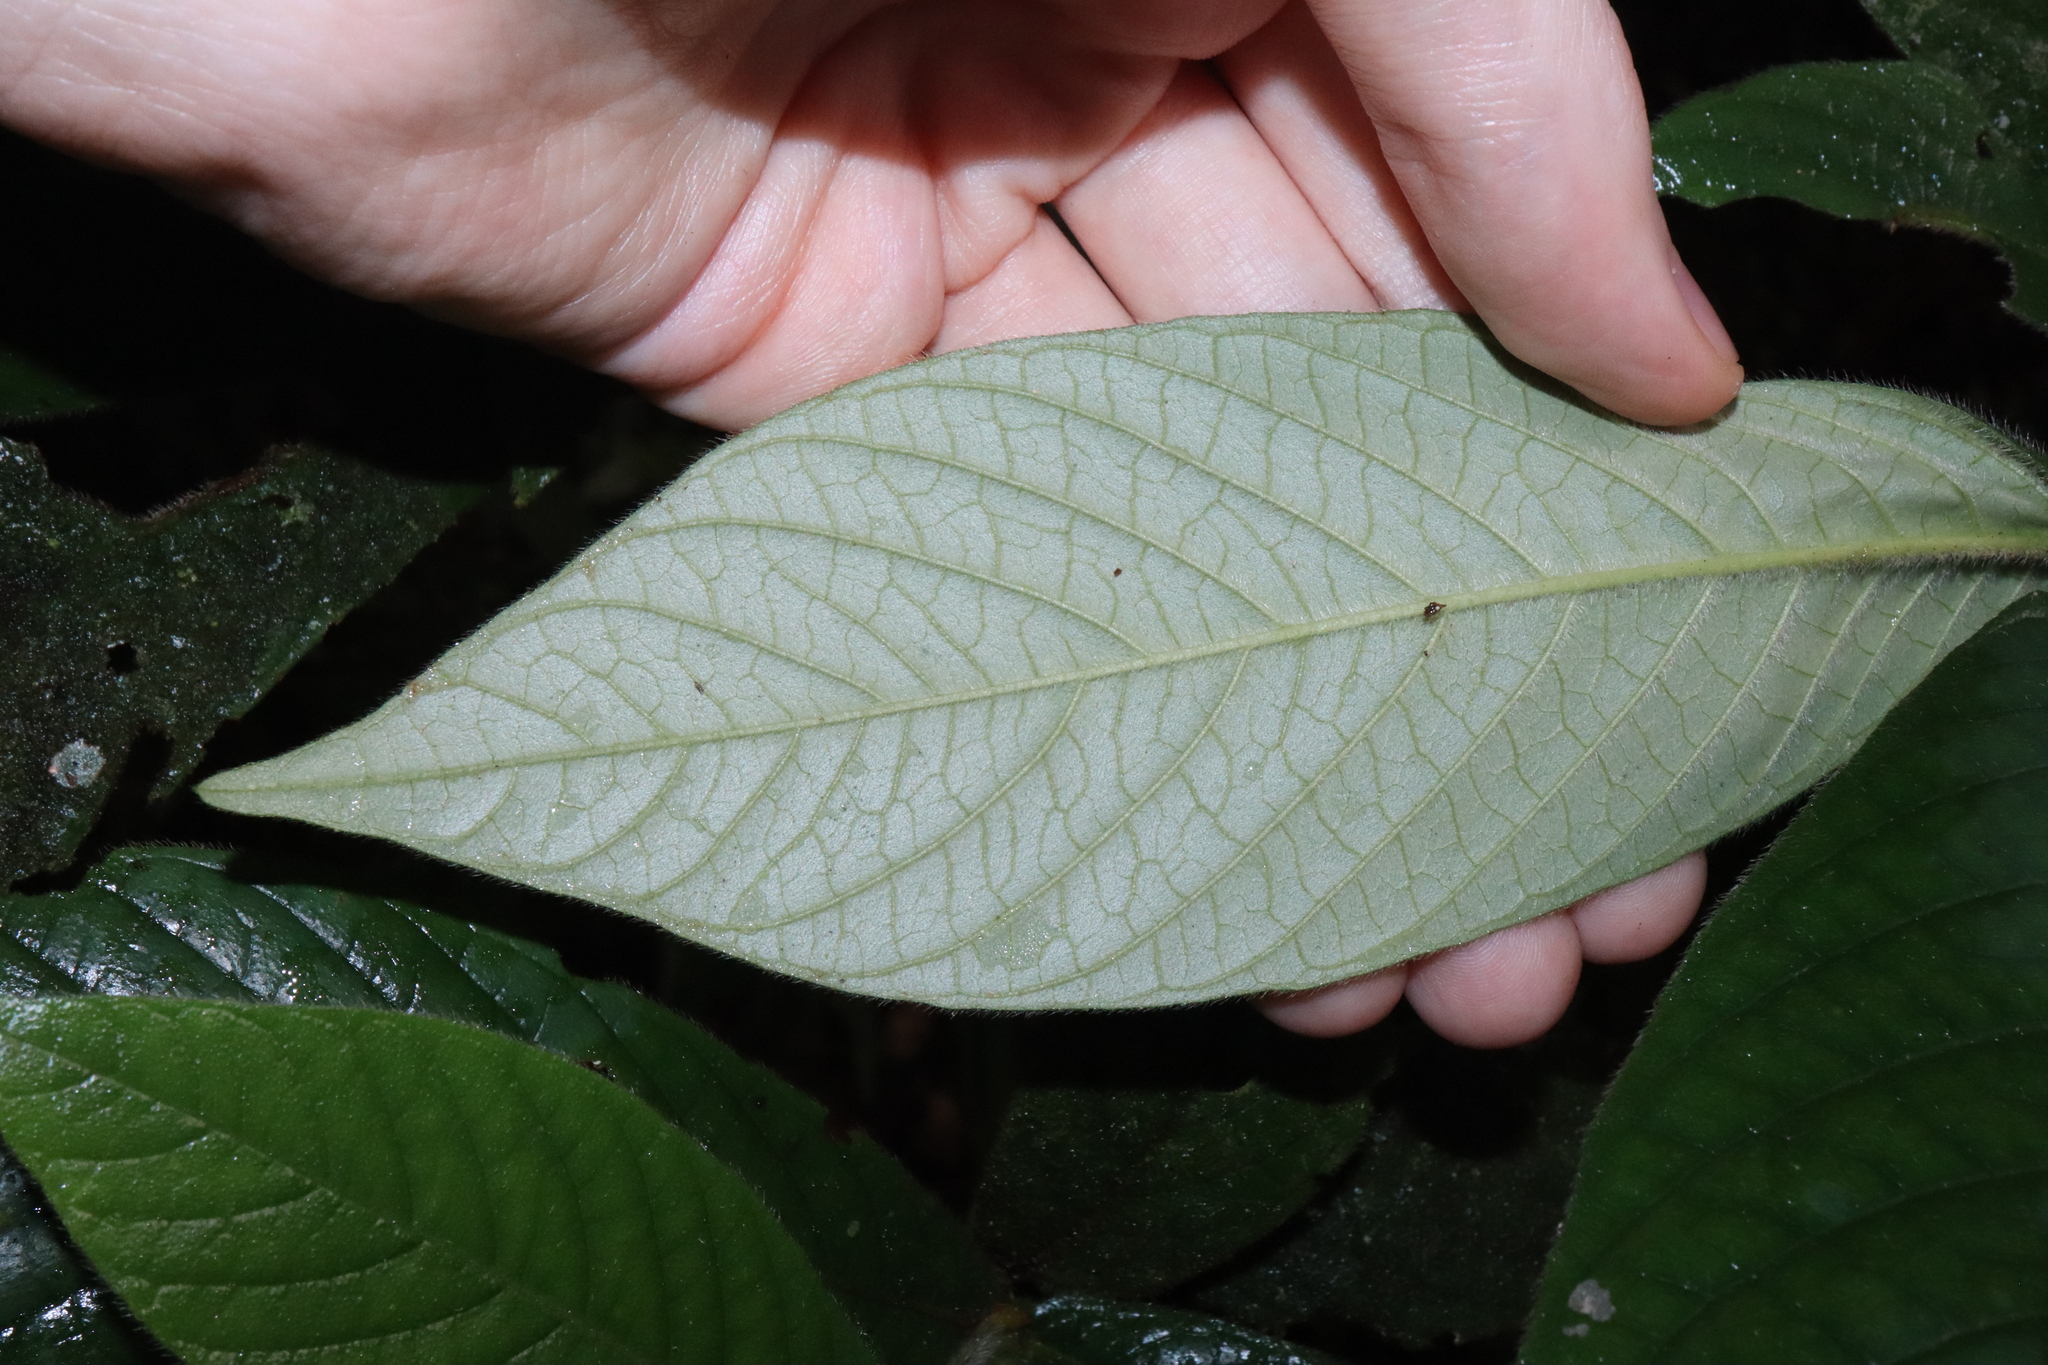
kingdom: Plantae
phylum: Tracheophyta
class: Magnoliopsida
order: Gentianales
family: Rubiaceae
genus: Atractocarpus
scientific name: Atractocarpus hirtus
